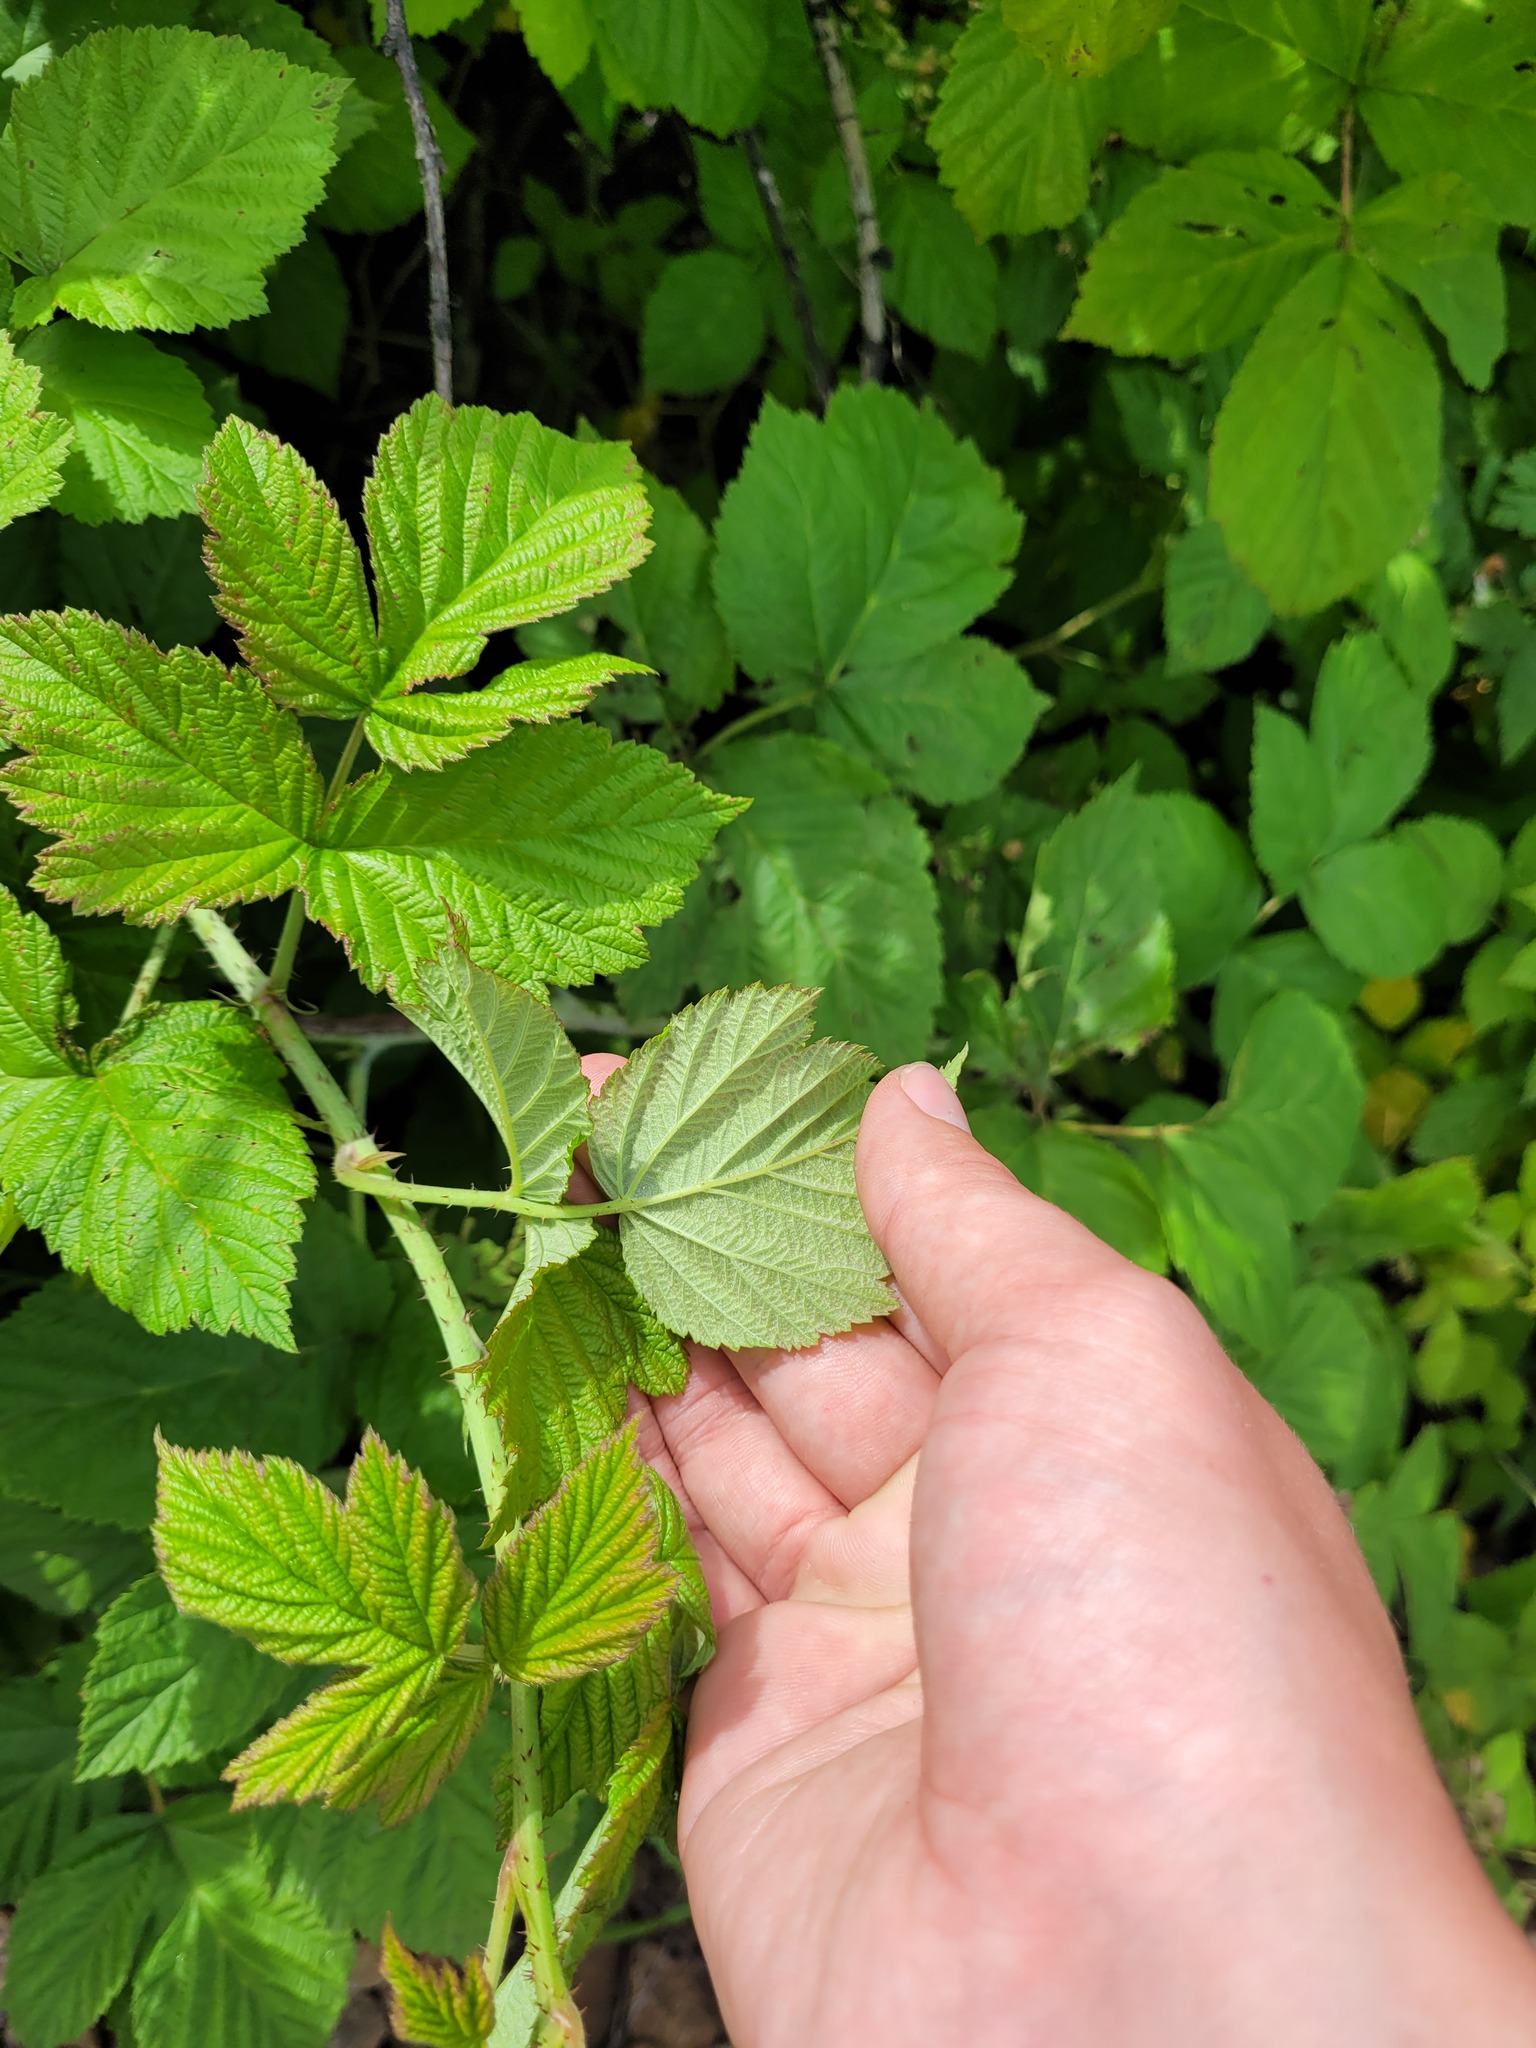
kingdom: Plantae
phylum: Tracheophyta
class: Magnoliopsida
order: Rosales
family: Rosaceae
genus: Rubus
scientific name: Rubus idaeoides
